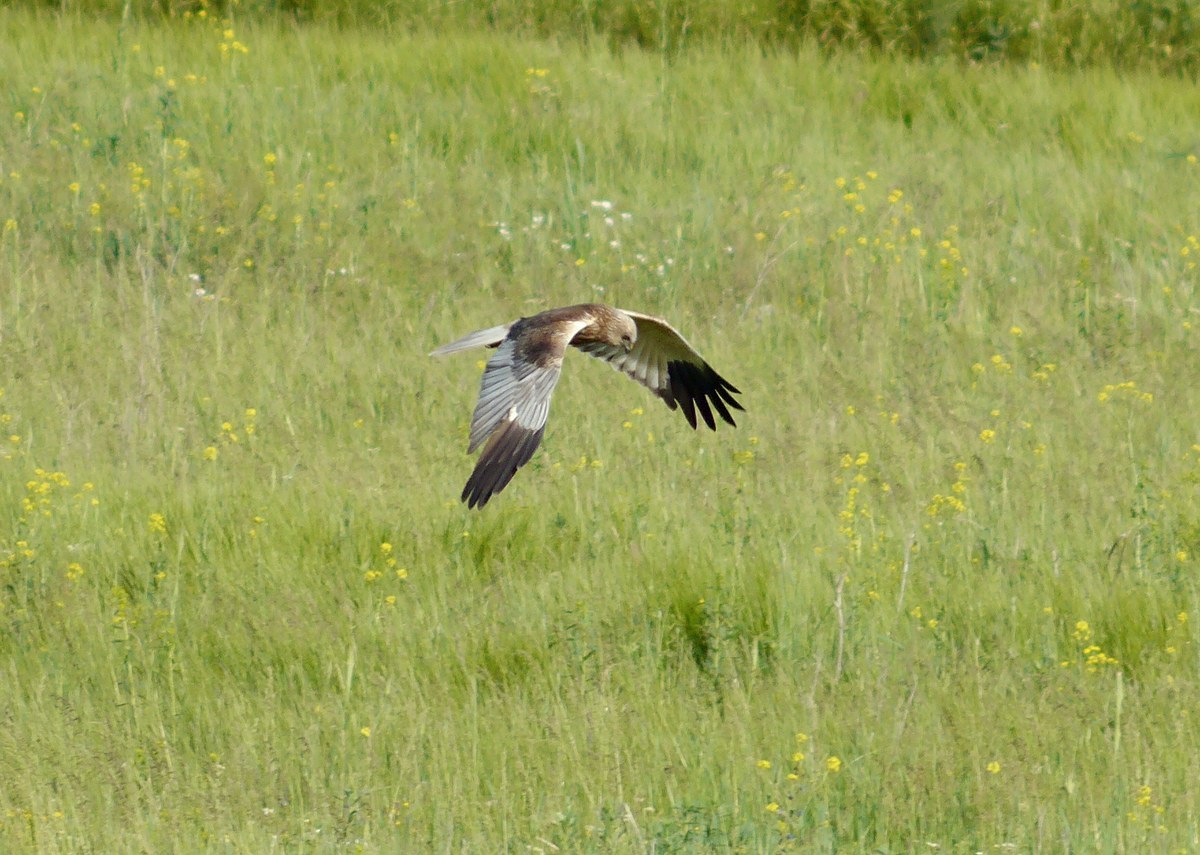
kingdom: Animalia
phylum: Chordata
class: Aves
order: Accipitriformes
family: Accipitridae
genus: Circus
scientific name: Circus aeruginosus
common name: Western marsh harrier
